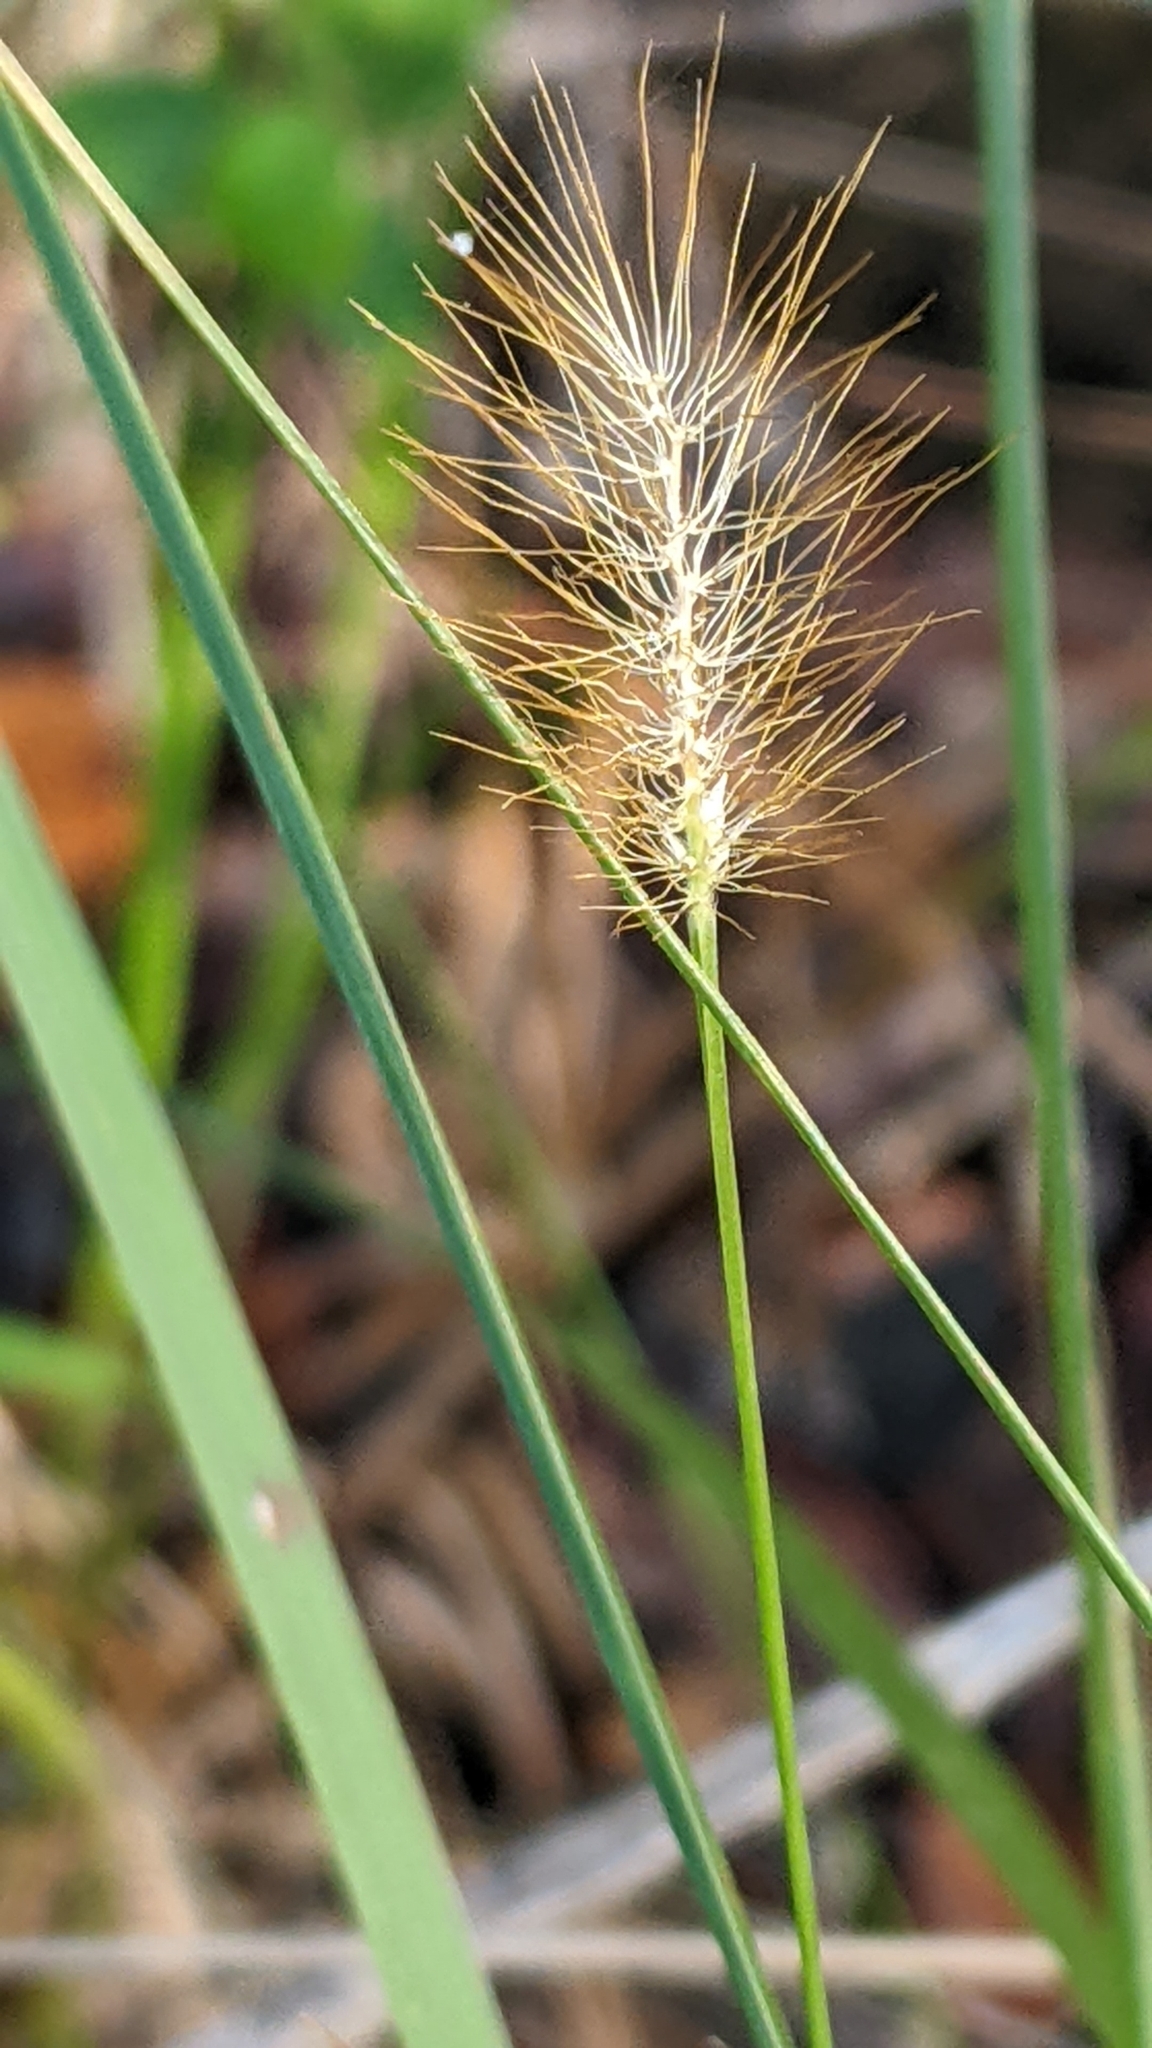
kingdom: Plantae
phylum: Tracheophyta
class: Liliopsida
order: Poales
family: Poaceae
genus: Setaria
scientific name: Setaria parviflora
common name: Knotroot bristle-grass
